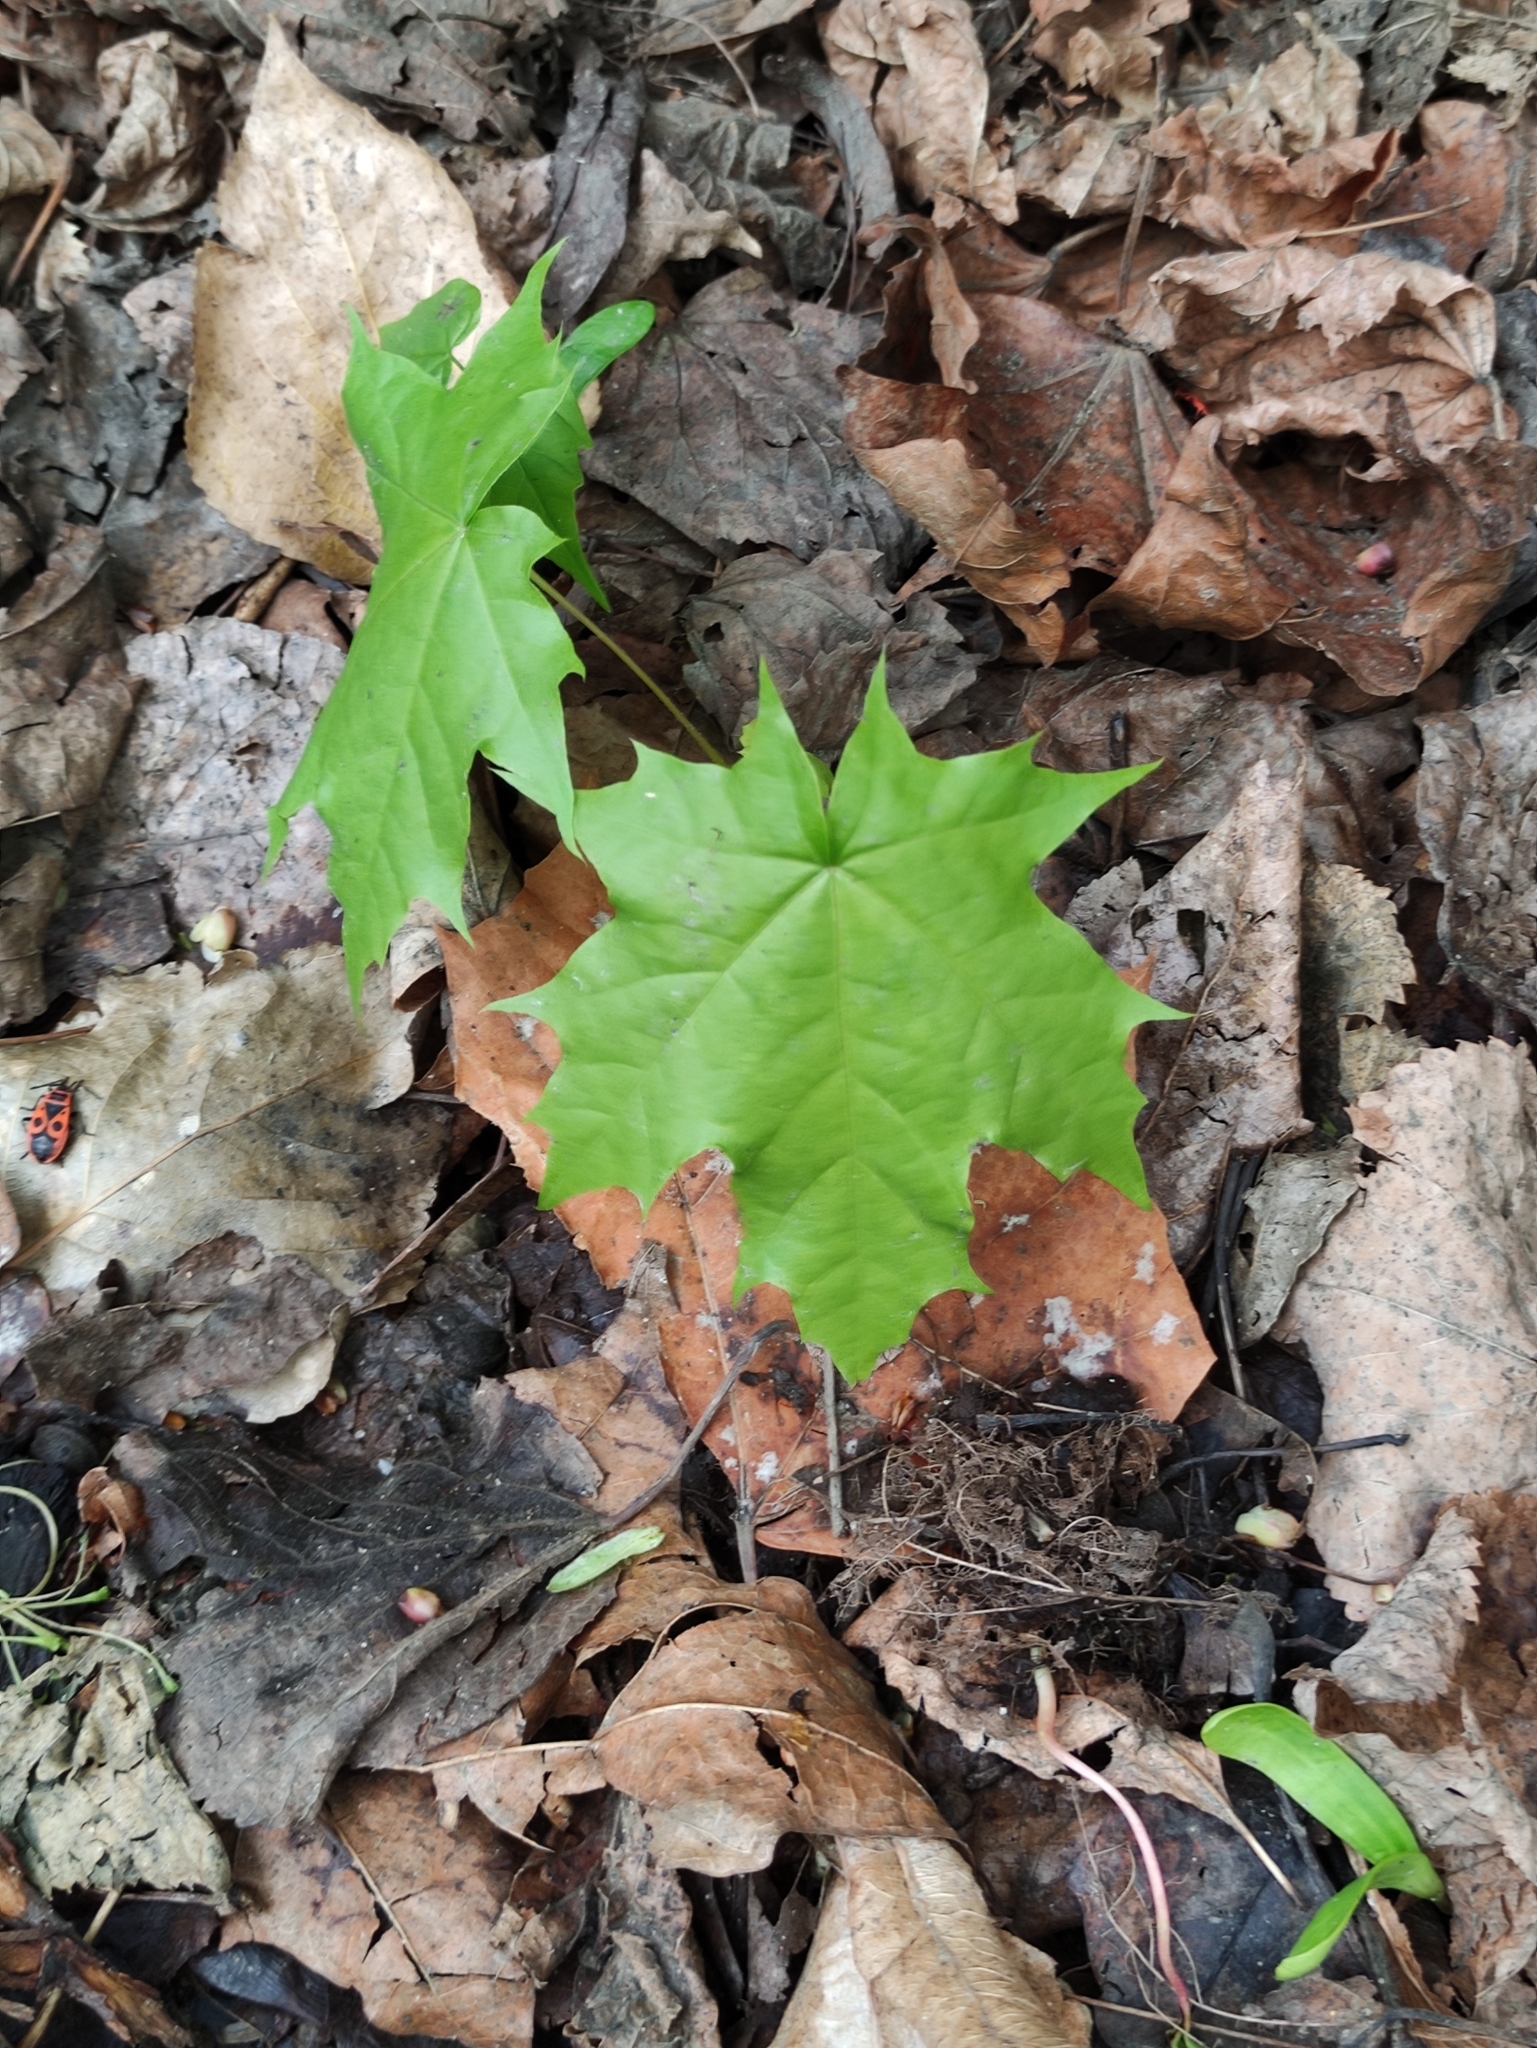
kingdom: Plantae
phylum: Tracheophyta
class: Magnoliopsida
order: Sapindales
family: Sapindaceae
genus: Acer
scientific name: Acer platanoides
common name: Norway maple
